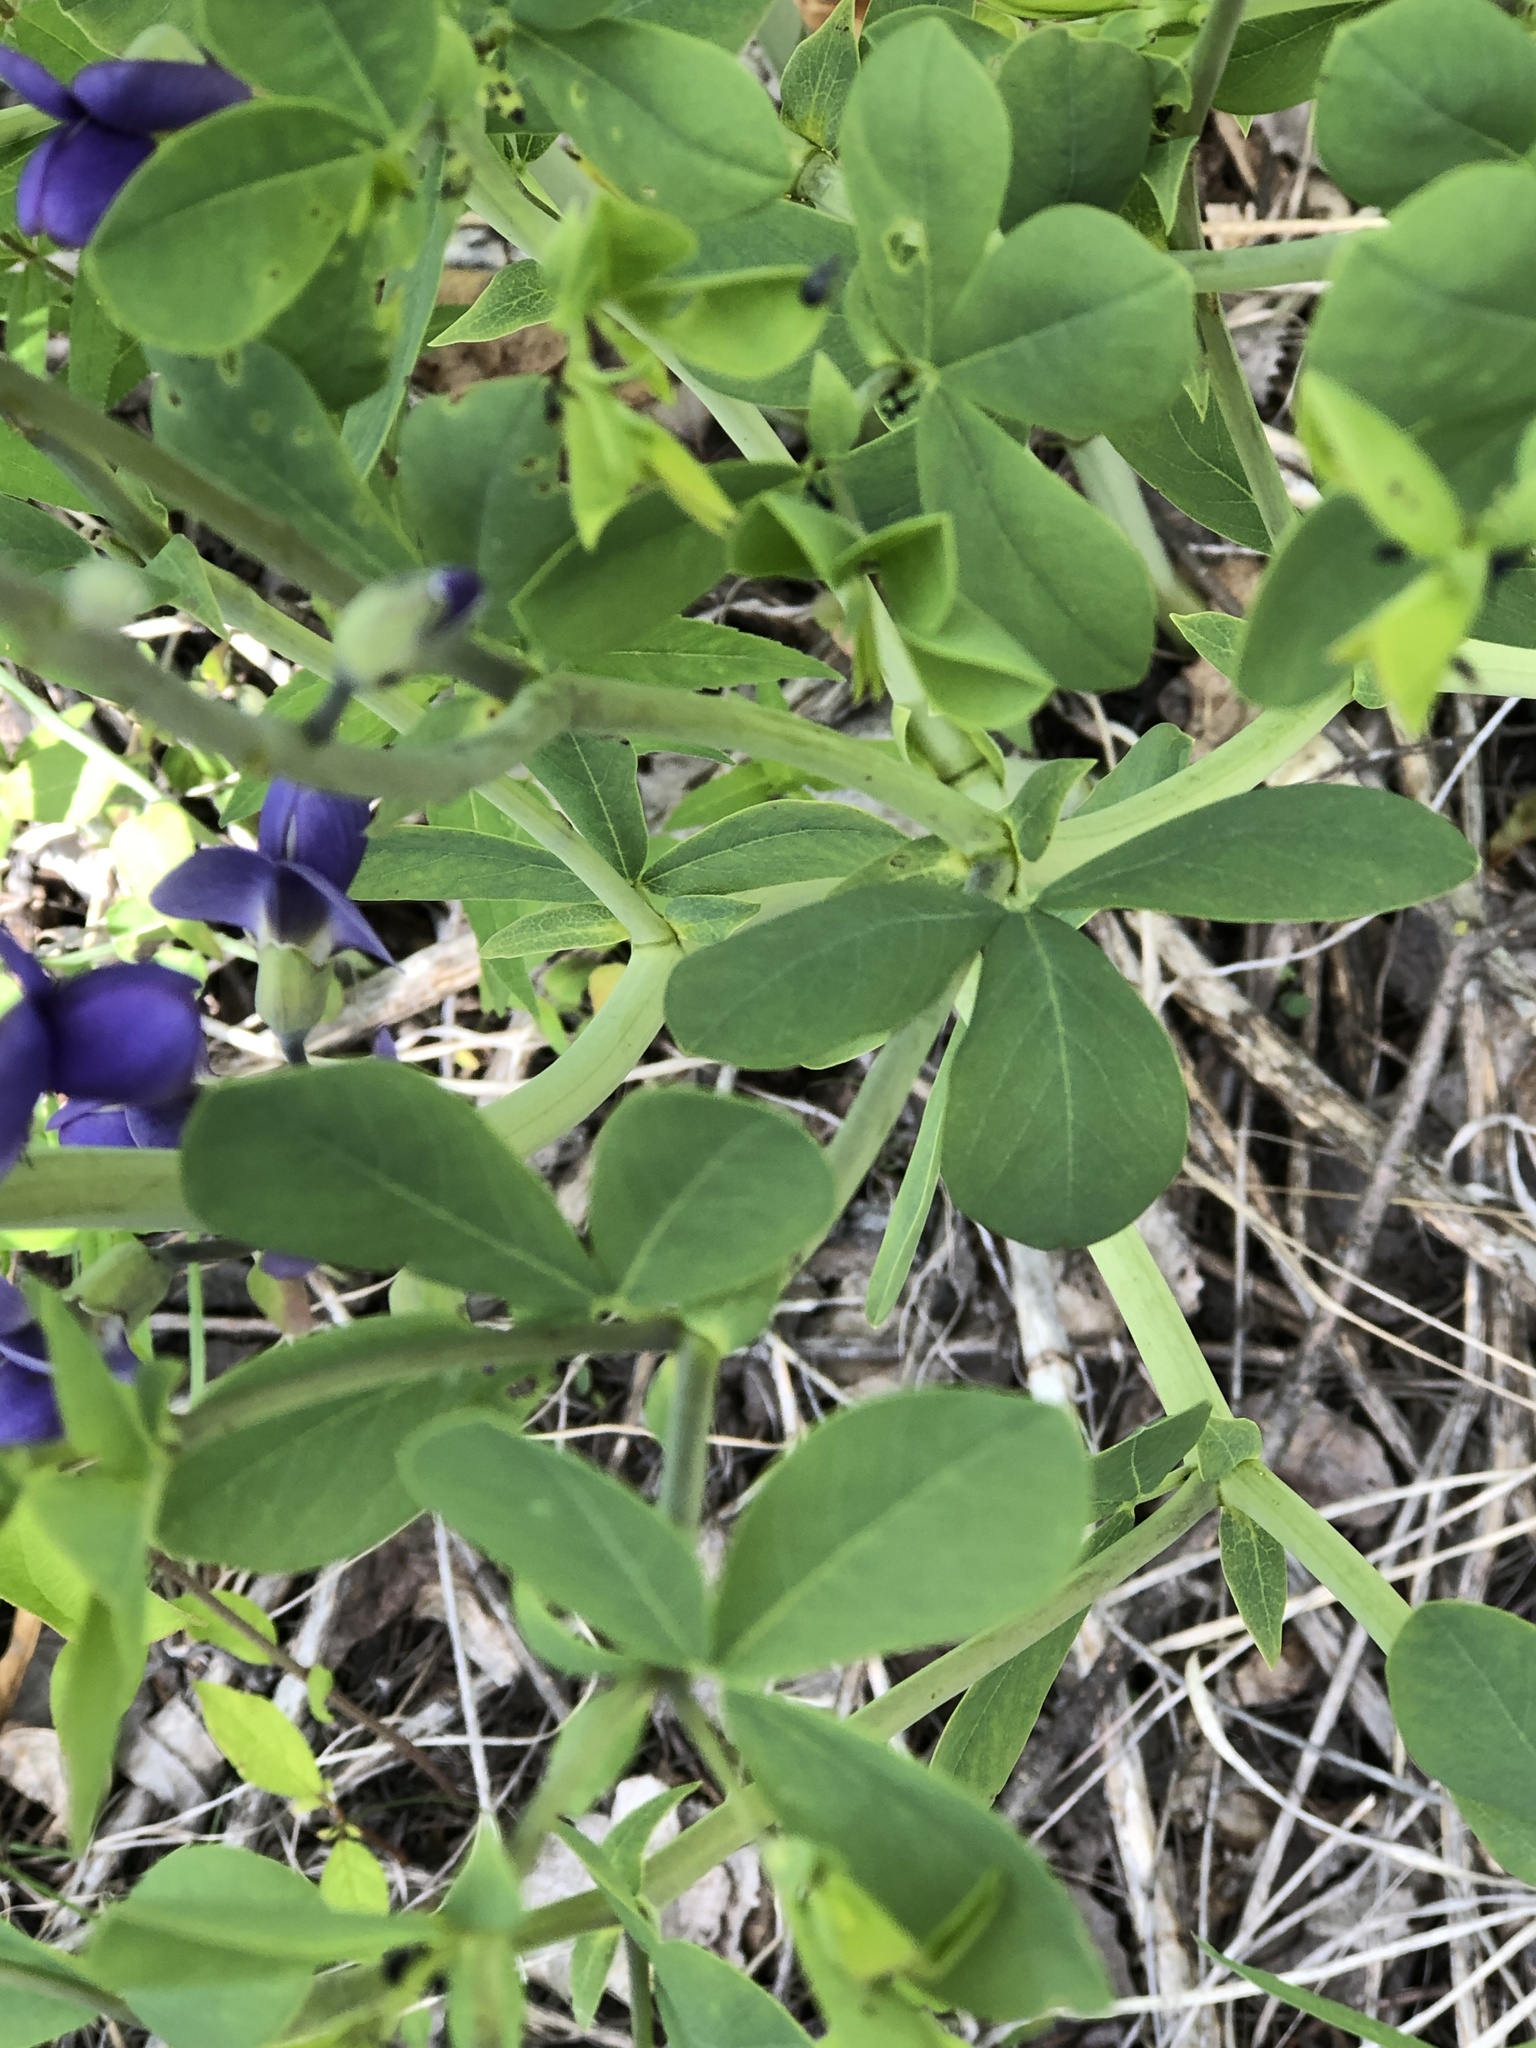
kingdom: Plantae
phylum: Tracheophyta
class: Magnoliopsida
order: Fabales
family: Fabaceae
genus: Baptisia
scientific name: Baptisia australis
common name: Blue false indigo
